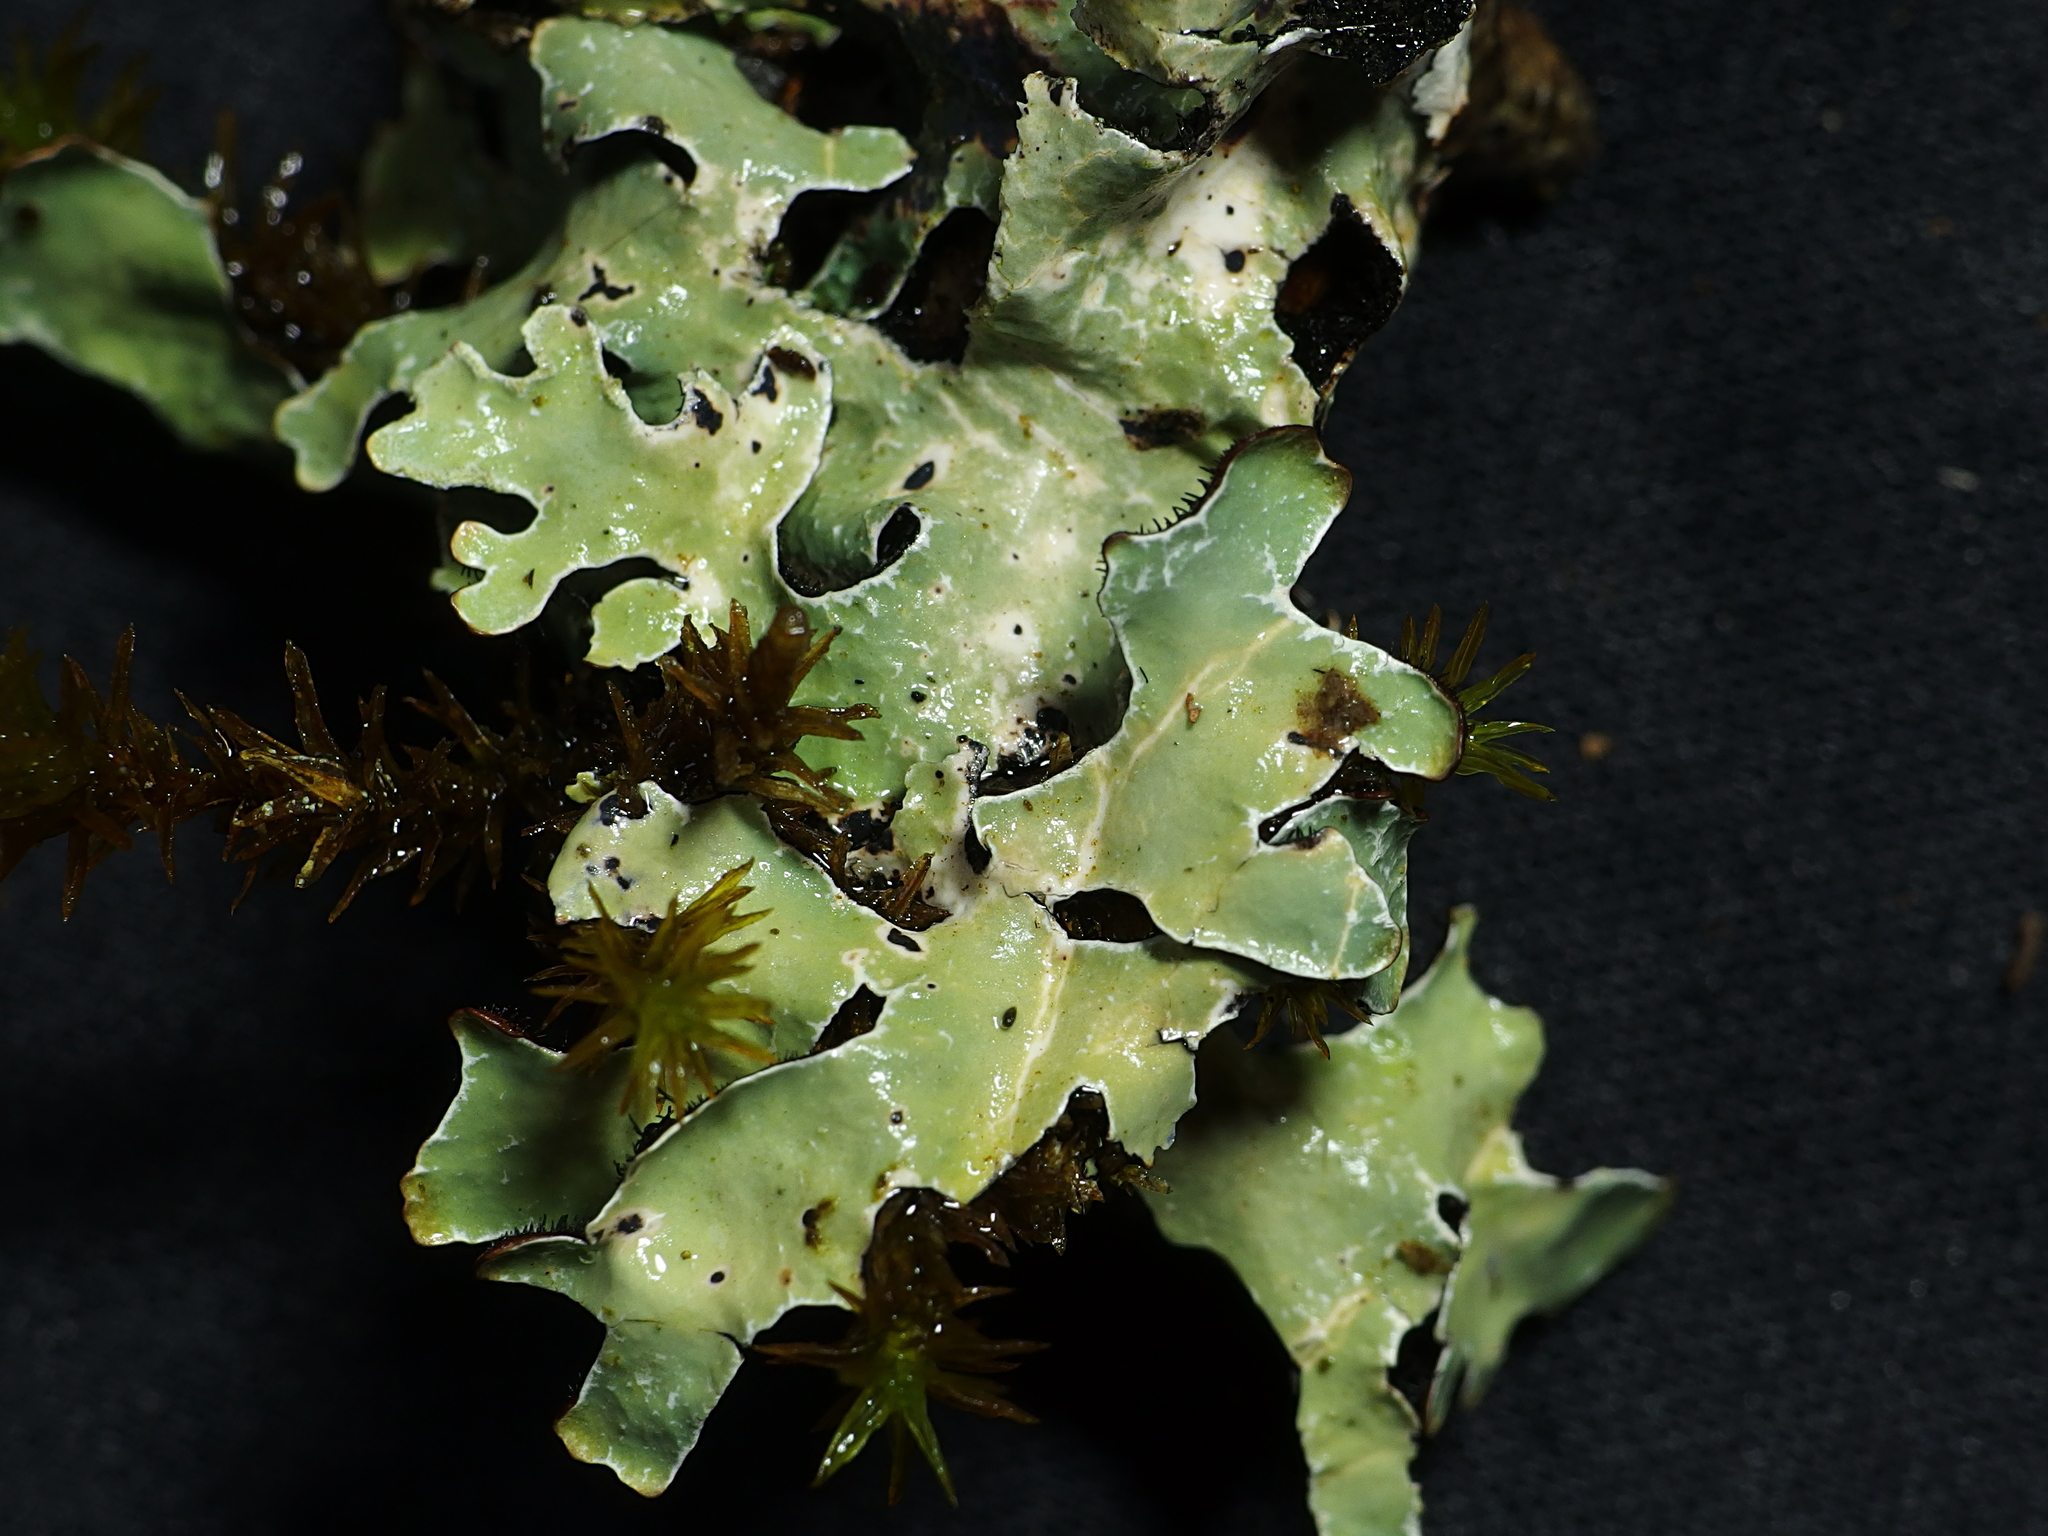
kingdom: Fungi
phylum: Ascomycota
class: Lecanoromycetes
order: Lecanorales
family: Parmeliaceae
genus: Parmelia
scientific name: Parmelia sulcata
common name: Netted shield lichen
